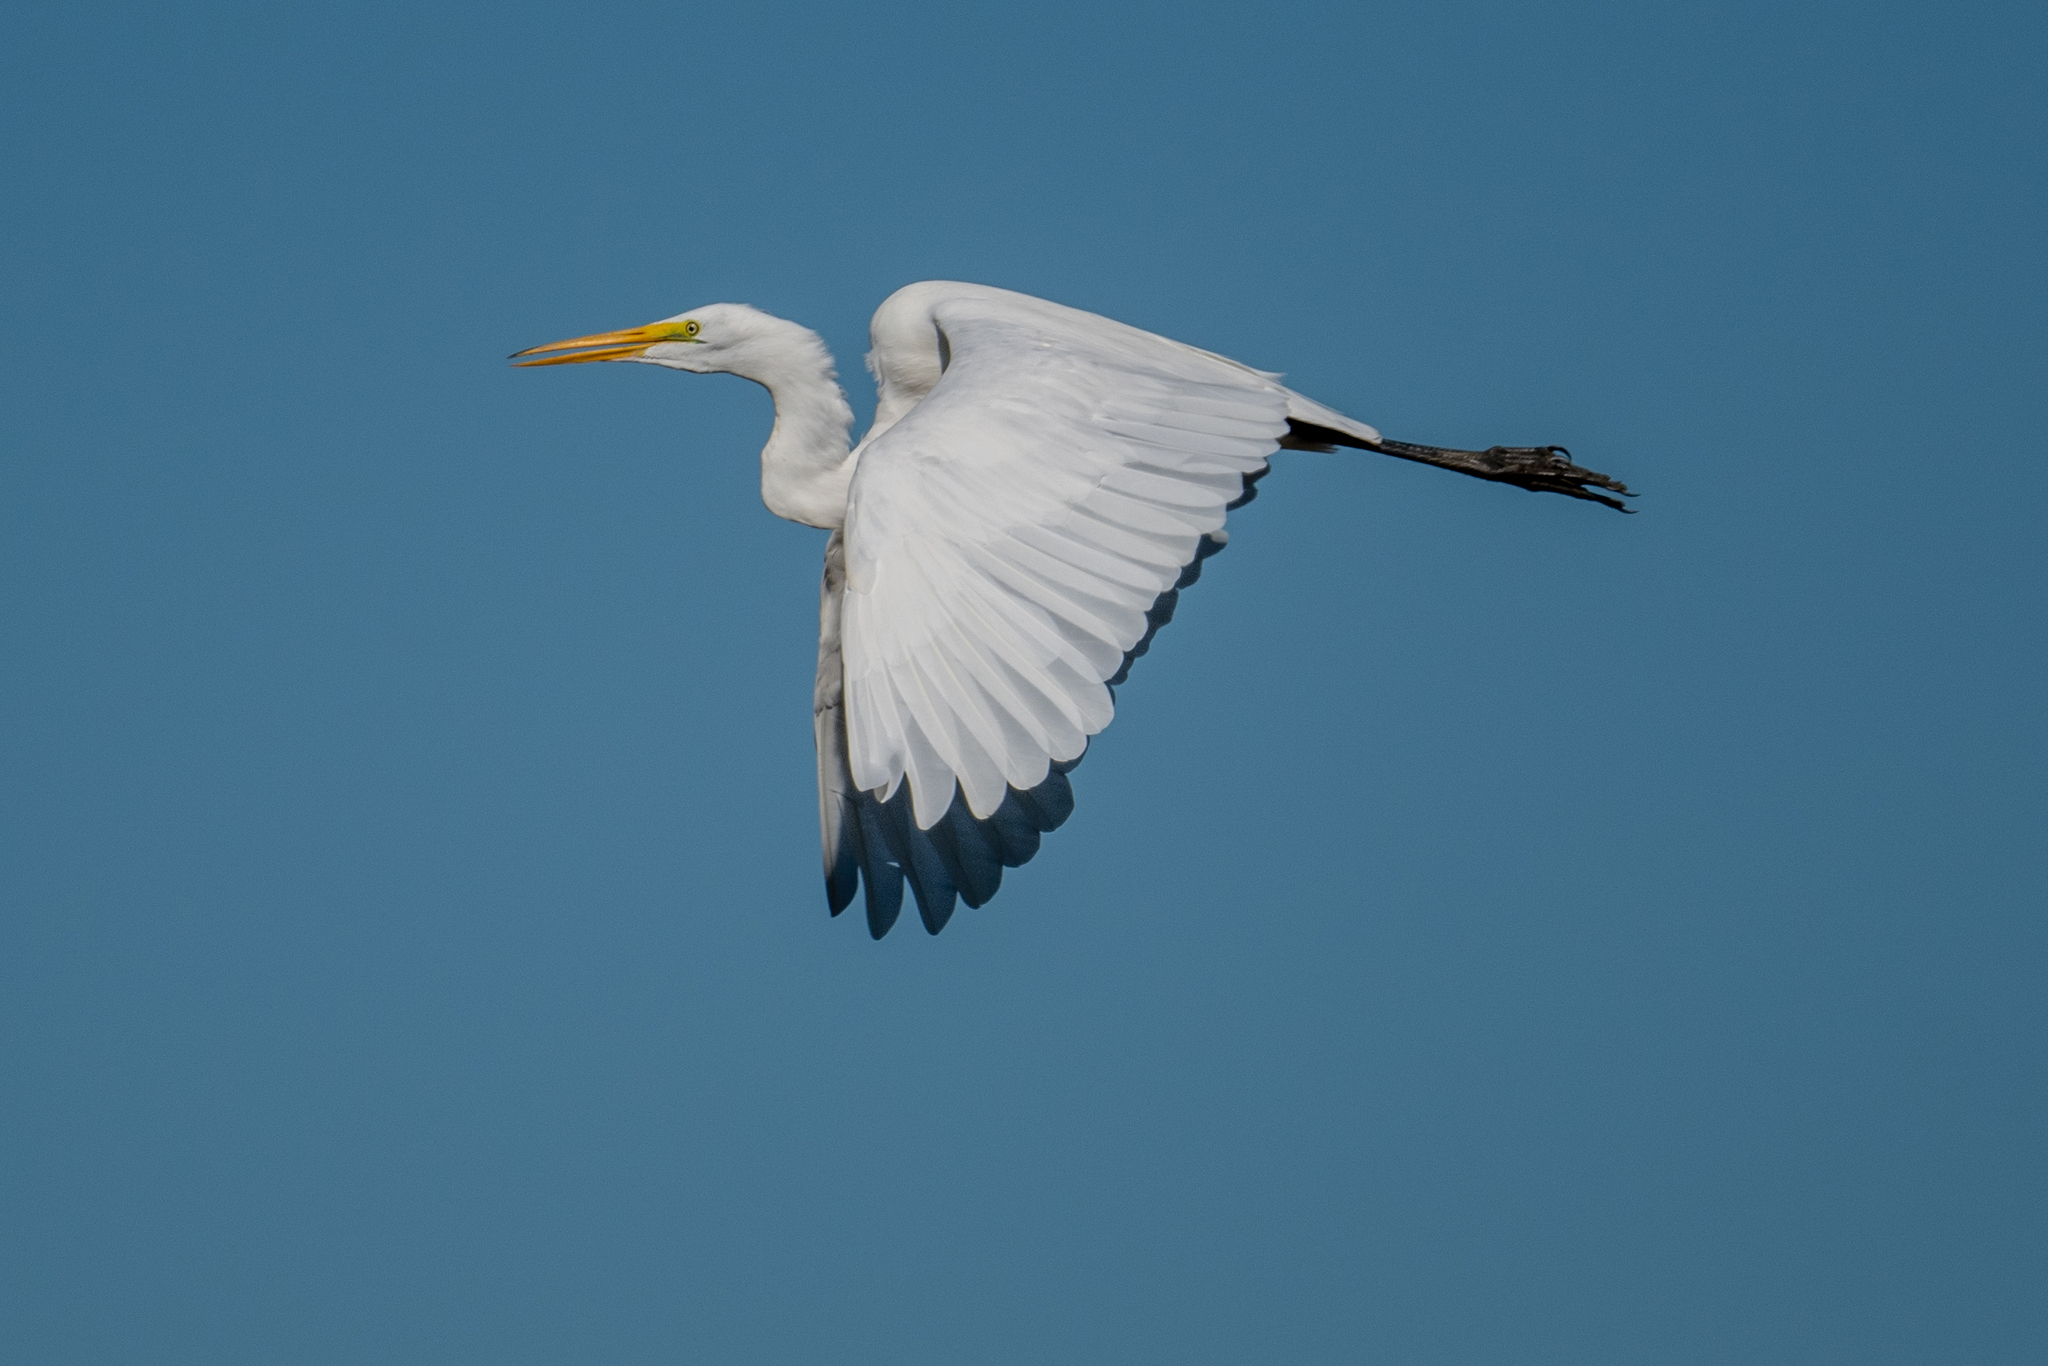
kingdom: Animalia
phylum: Chordata
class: Aves
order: Pelecaniformes
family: Ardeidae
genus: Ardea
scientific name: Ardea alba
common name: Great egret
